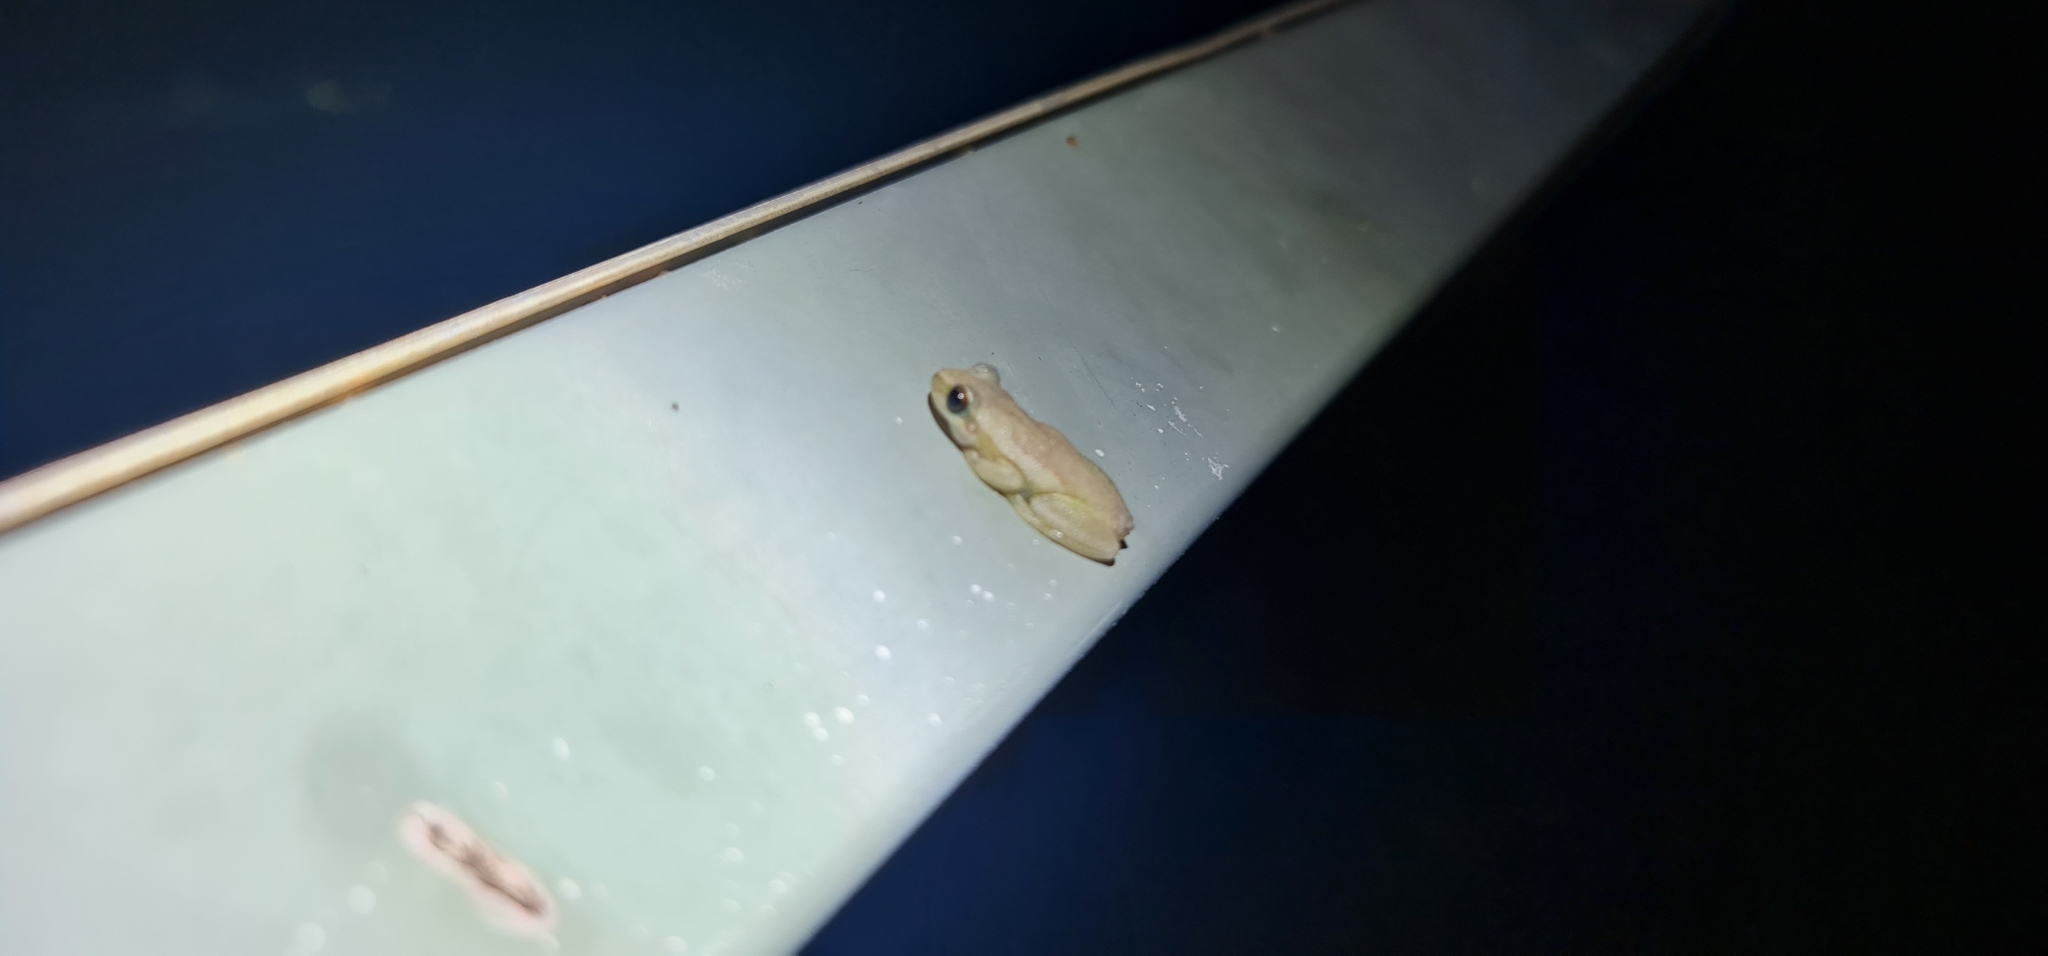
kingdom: Animalia
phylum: Chordata
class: Amphibia
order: Anura
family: Pelodryadidae
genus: Litoria
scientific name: Litoria rubella
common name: Desert tree frog
